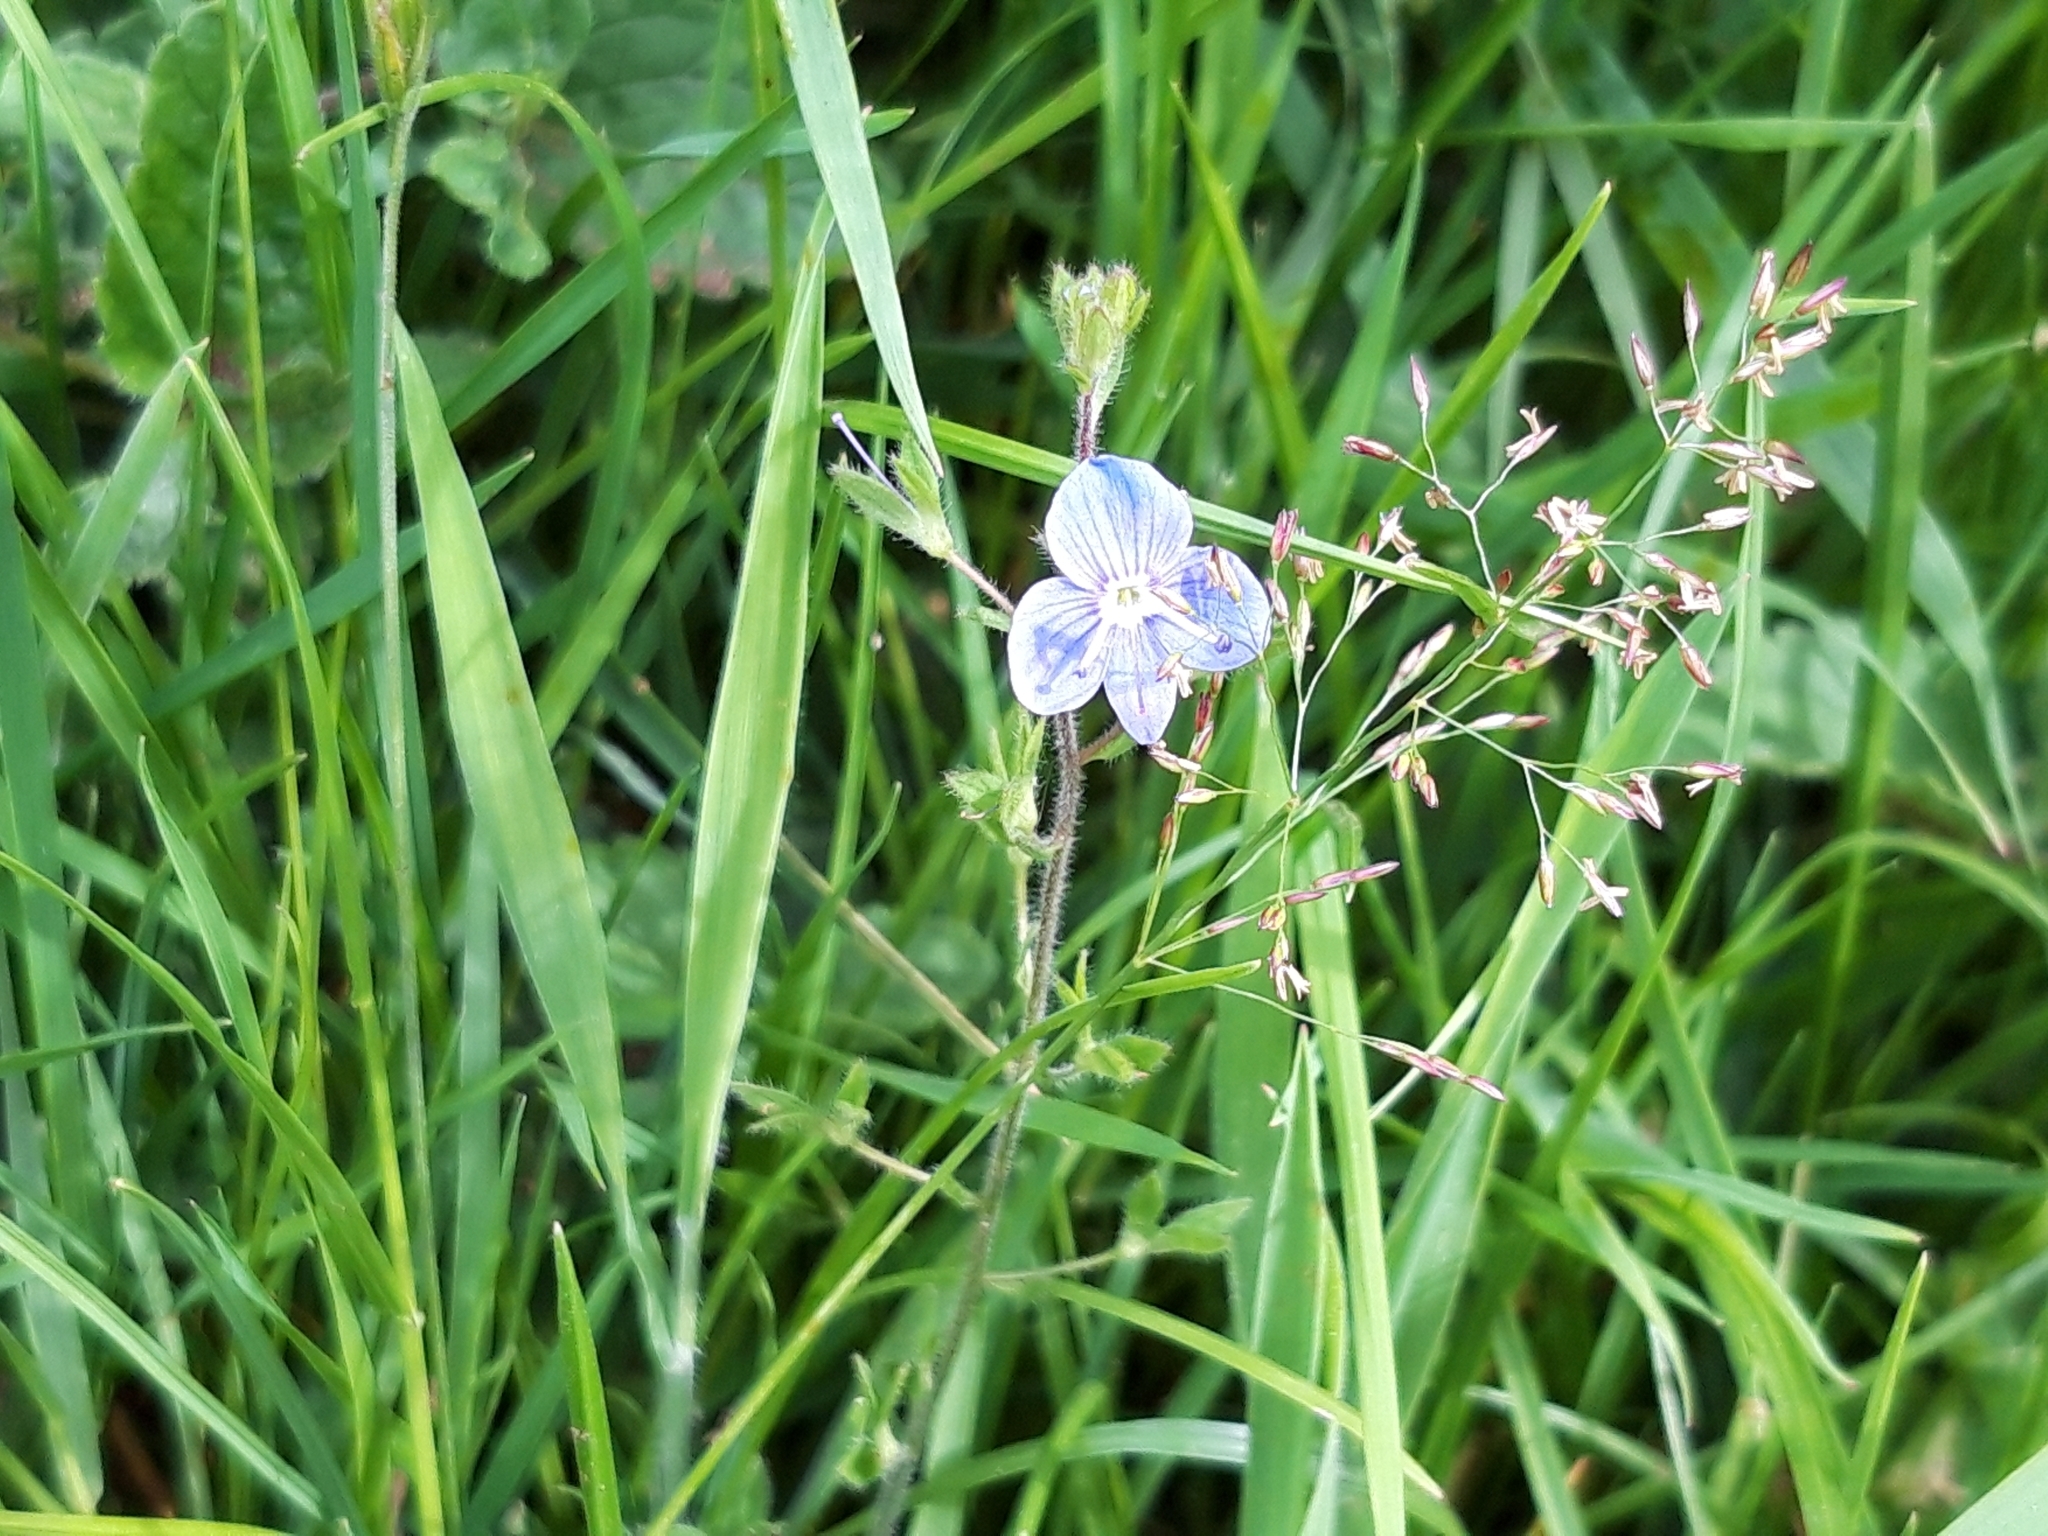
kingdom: Plantae
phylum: Tracheophyta
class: Magnoliopsida
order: Lamiales
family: Plantaginaceae
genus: Veronica
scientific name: Veronica chamaedrys
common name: Germander speedwell
